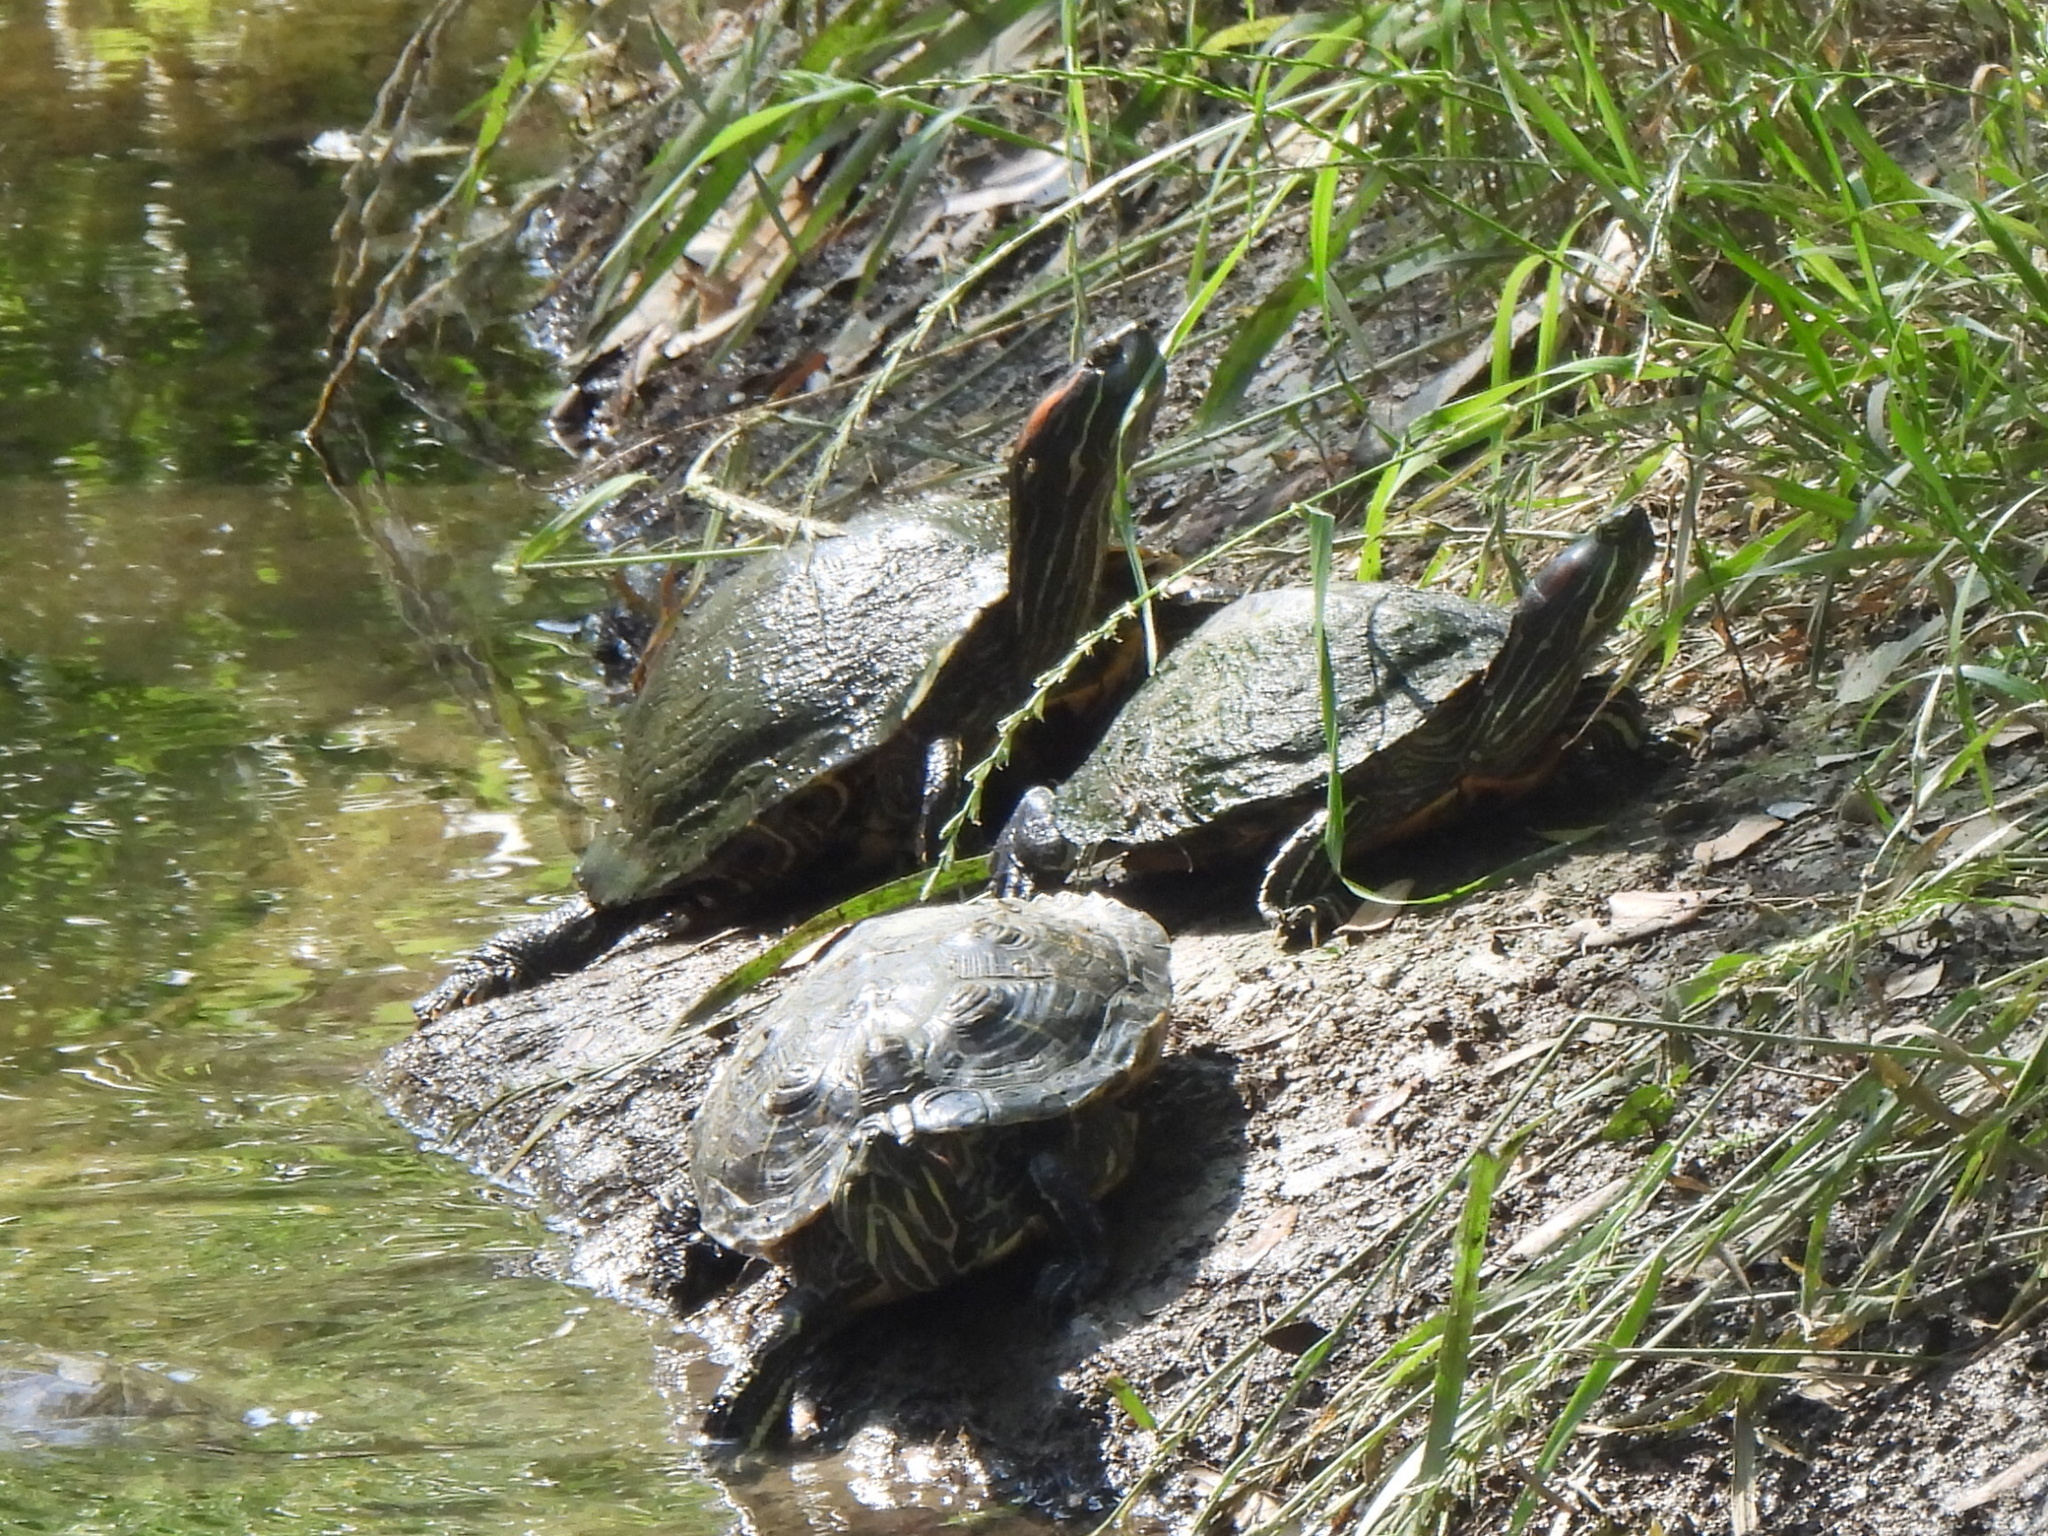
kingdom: Animalia
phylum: Chordata
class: Testudines
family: Emydidae
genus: Trachemys
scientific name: Trachemys scripta
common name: Slider
